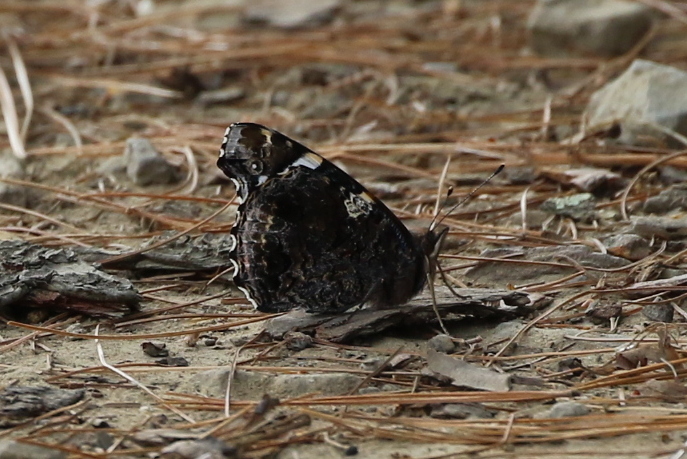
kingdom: Animalia
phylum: Arthropoda
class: Insecta
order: Lepidoptera
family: Nymphalidae
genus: Vanessa
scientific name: Vanessa atalanta
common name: Red admiral
